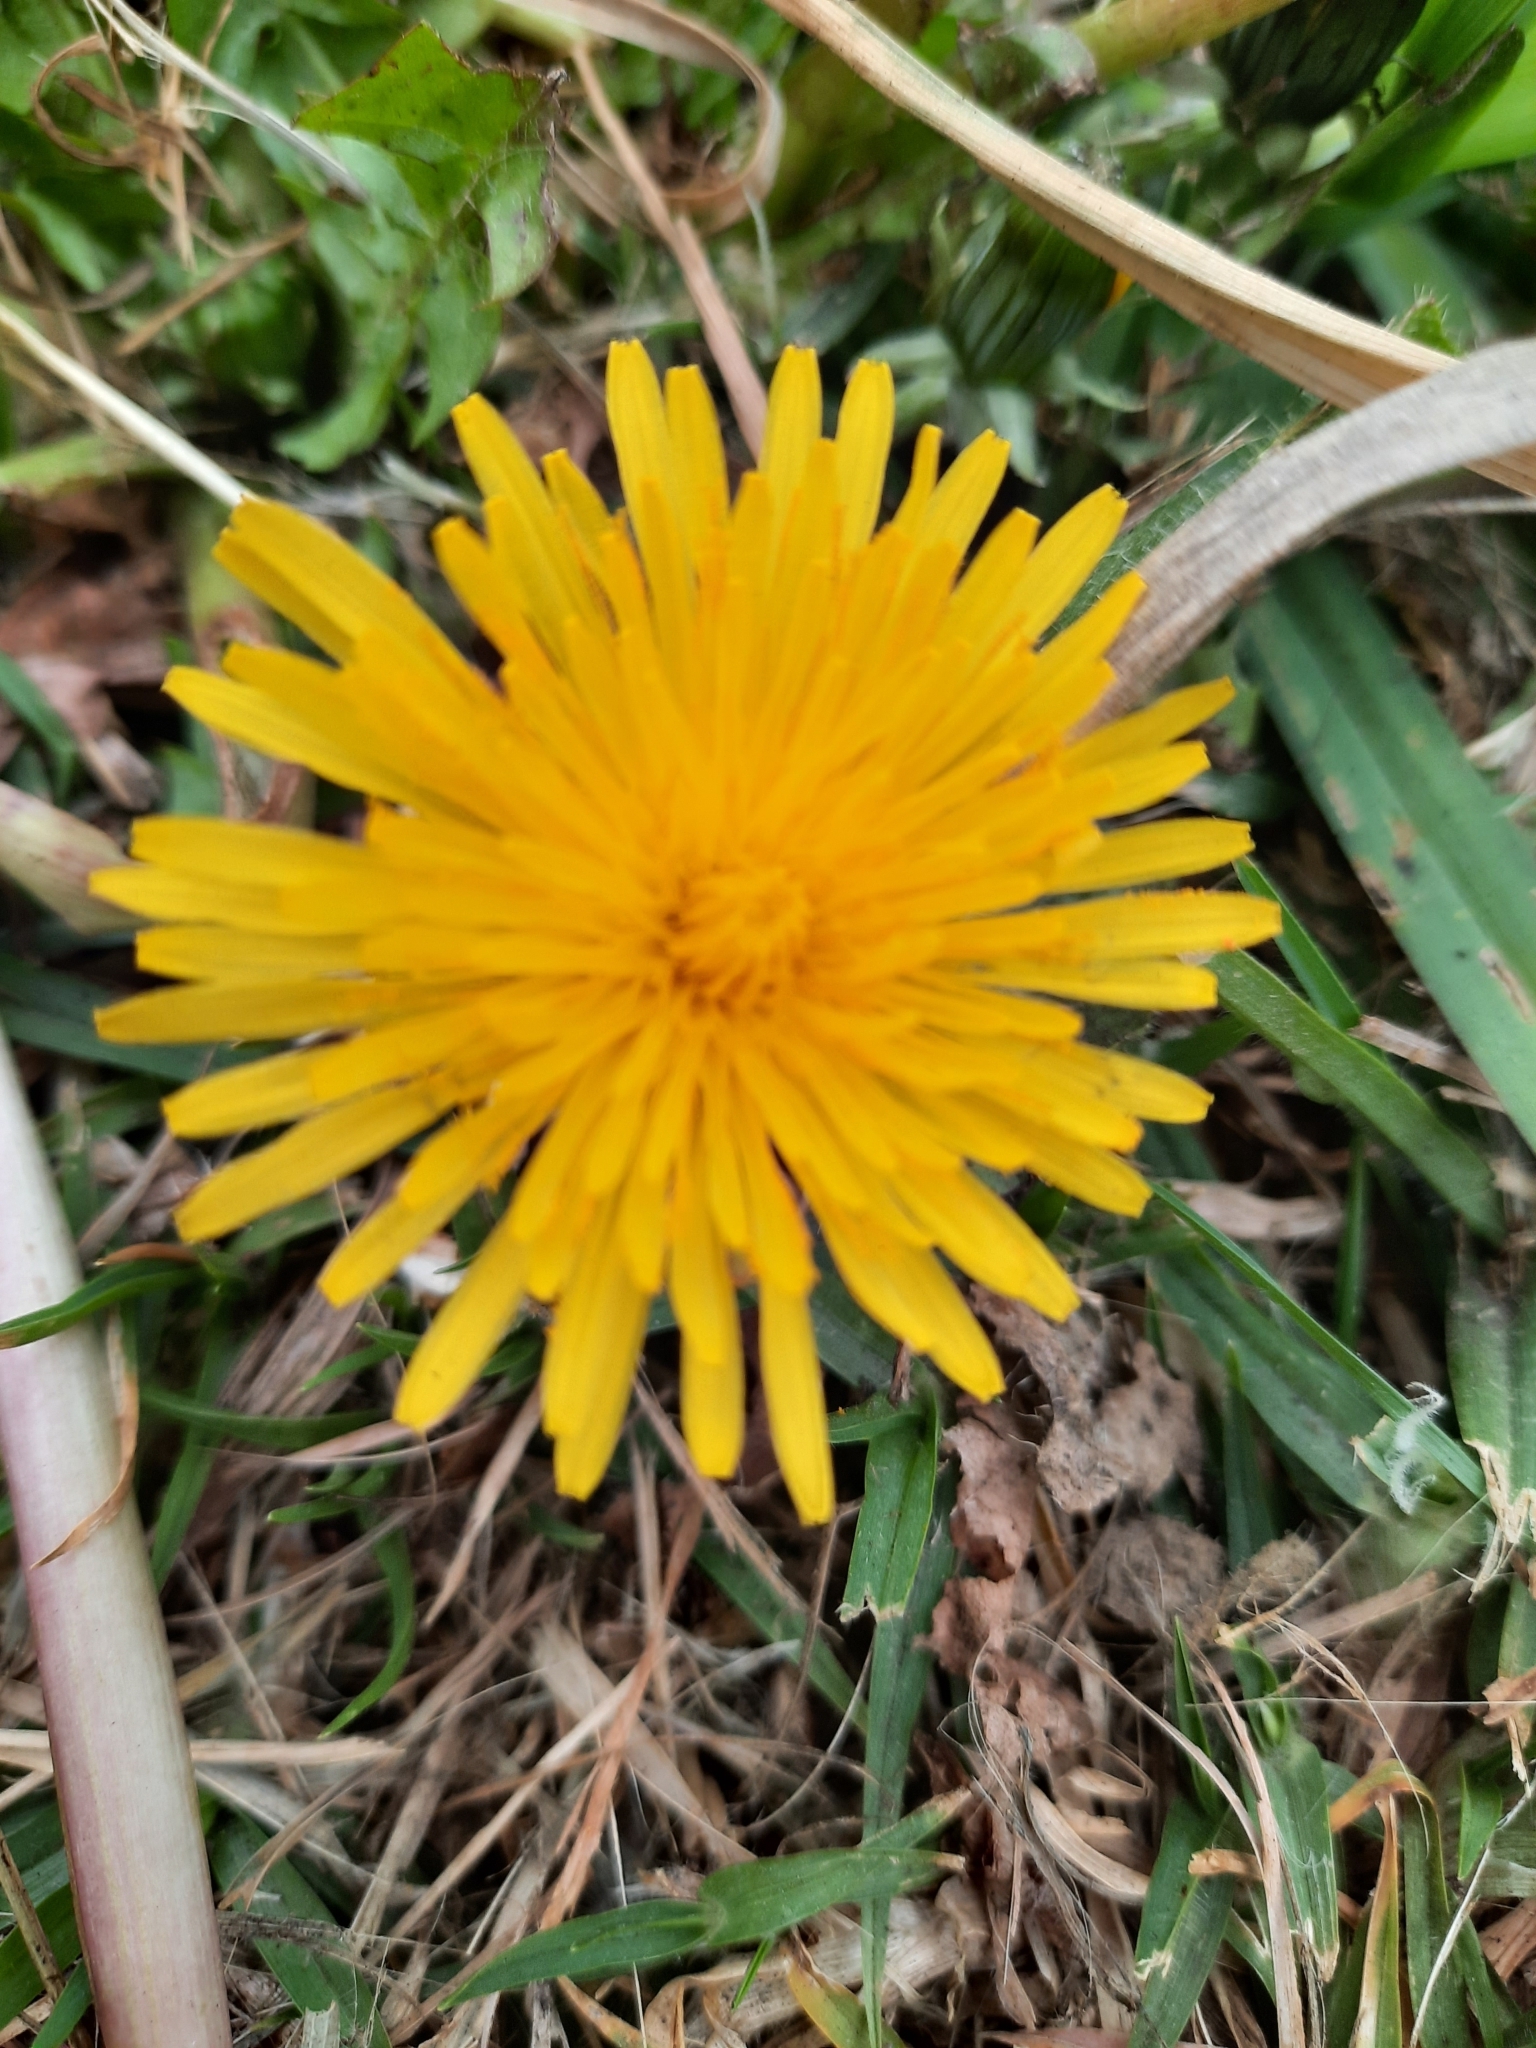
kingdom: Plantae
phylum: Tracheophyta
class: Magnoliopsida
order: Asterales
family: Asteraceae
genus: Taraxacum
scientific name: Taraxacum officinale
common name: Common dandelion
